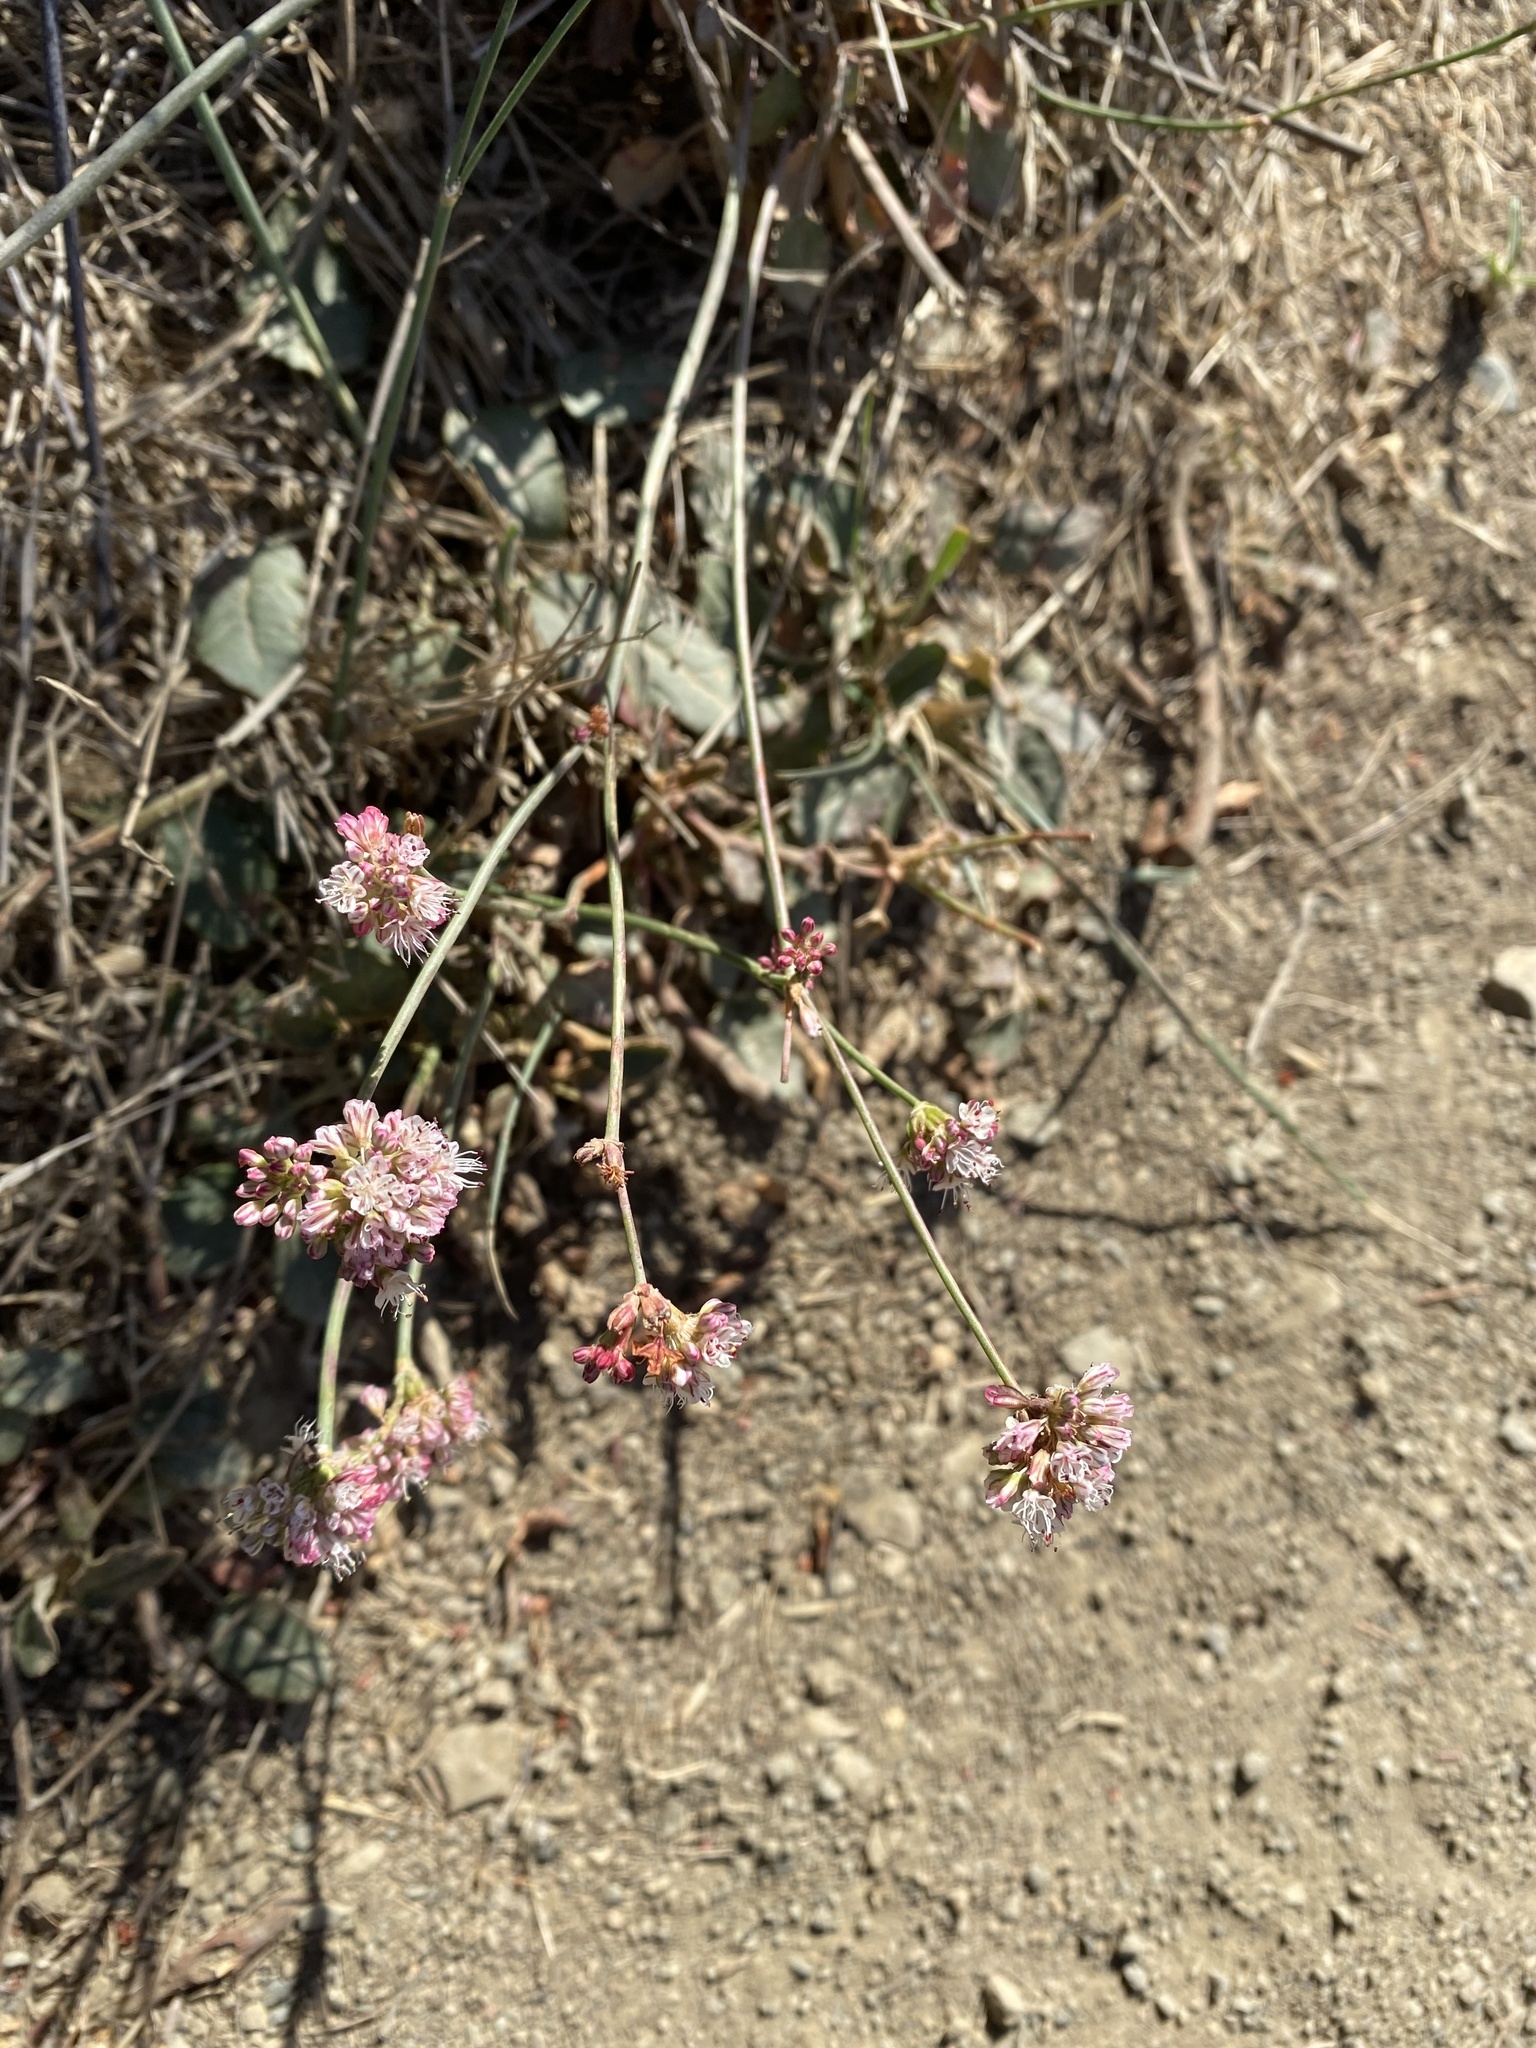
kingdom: Plantae
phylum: Tracheophyta
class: Magnoliopsida
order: Caryophyllales
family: Polygonaceae
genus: Eriogonum
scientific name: Eriogonum nudum
